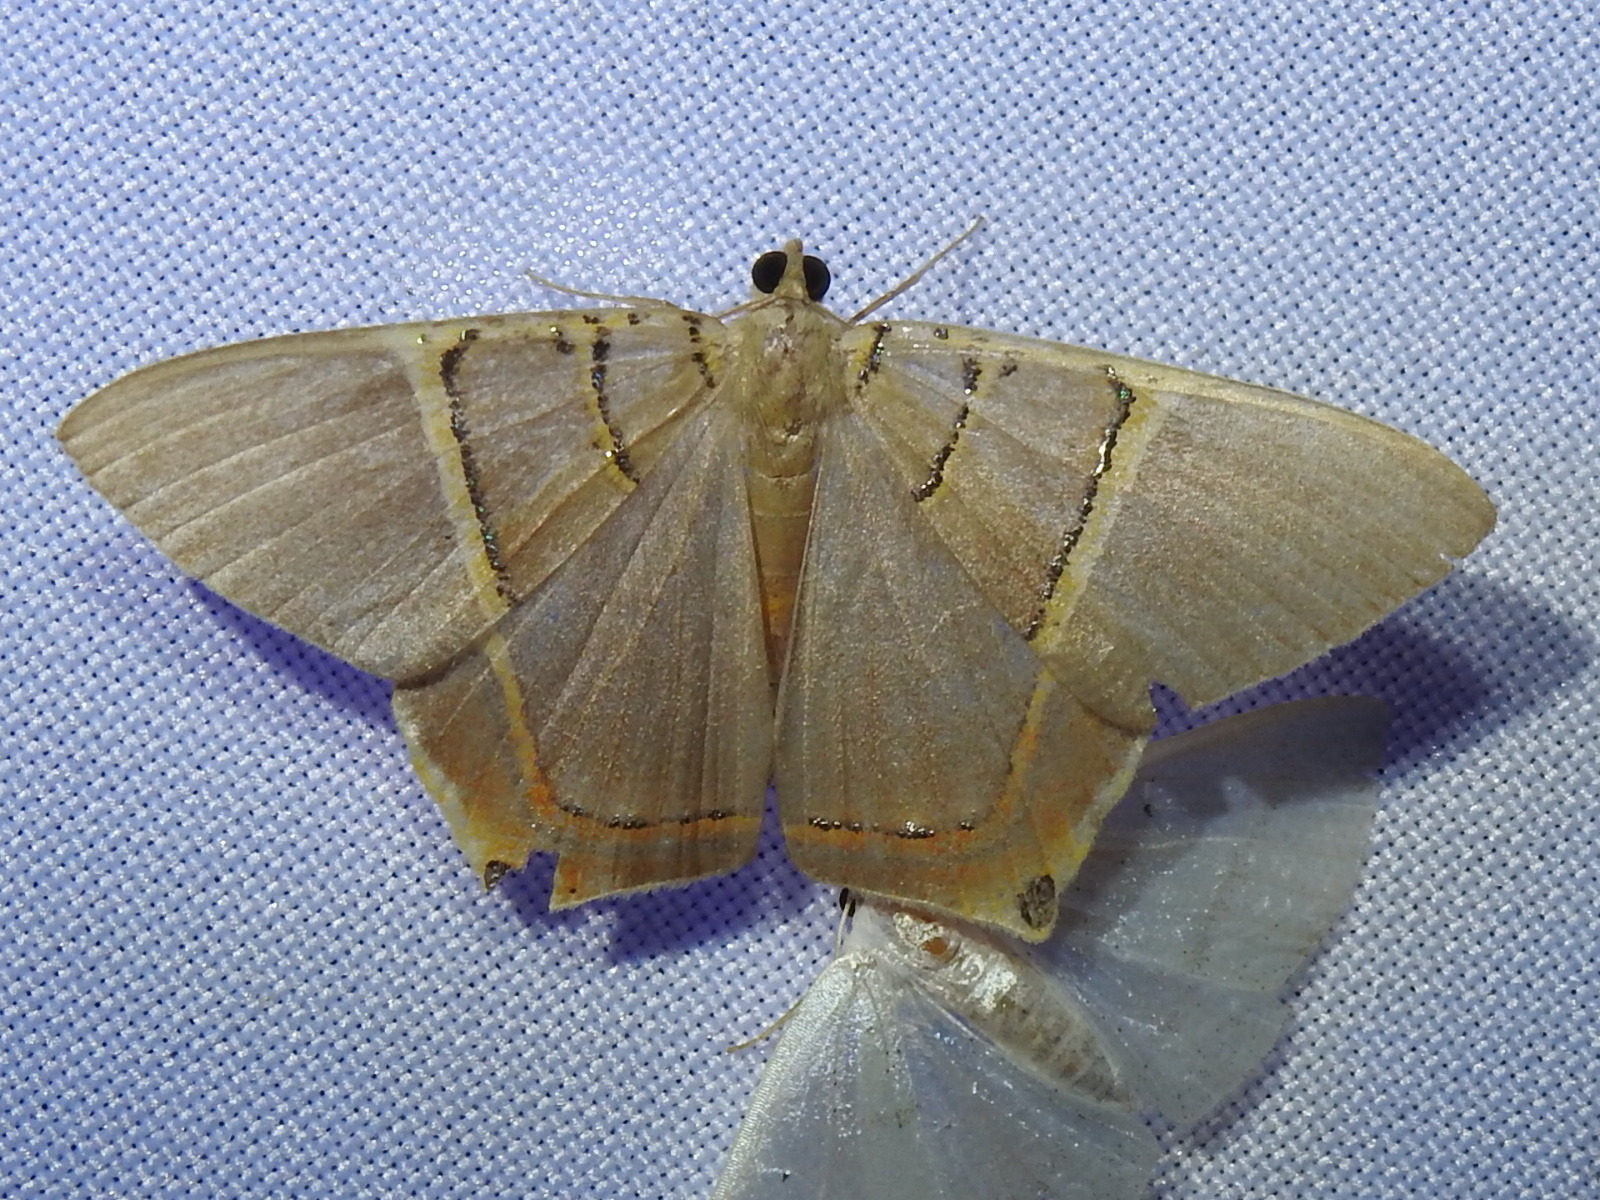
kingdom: Animalia
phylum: Arthropoda
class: Insecta
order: Lepidoptera
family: Geometridae
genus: Phrygionis
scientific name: Phrygionis polita
